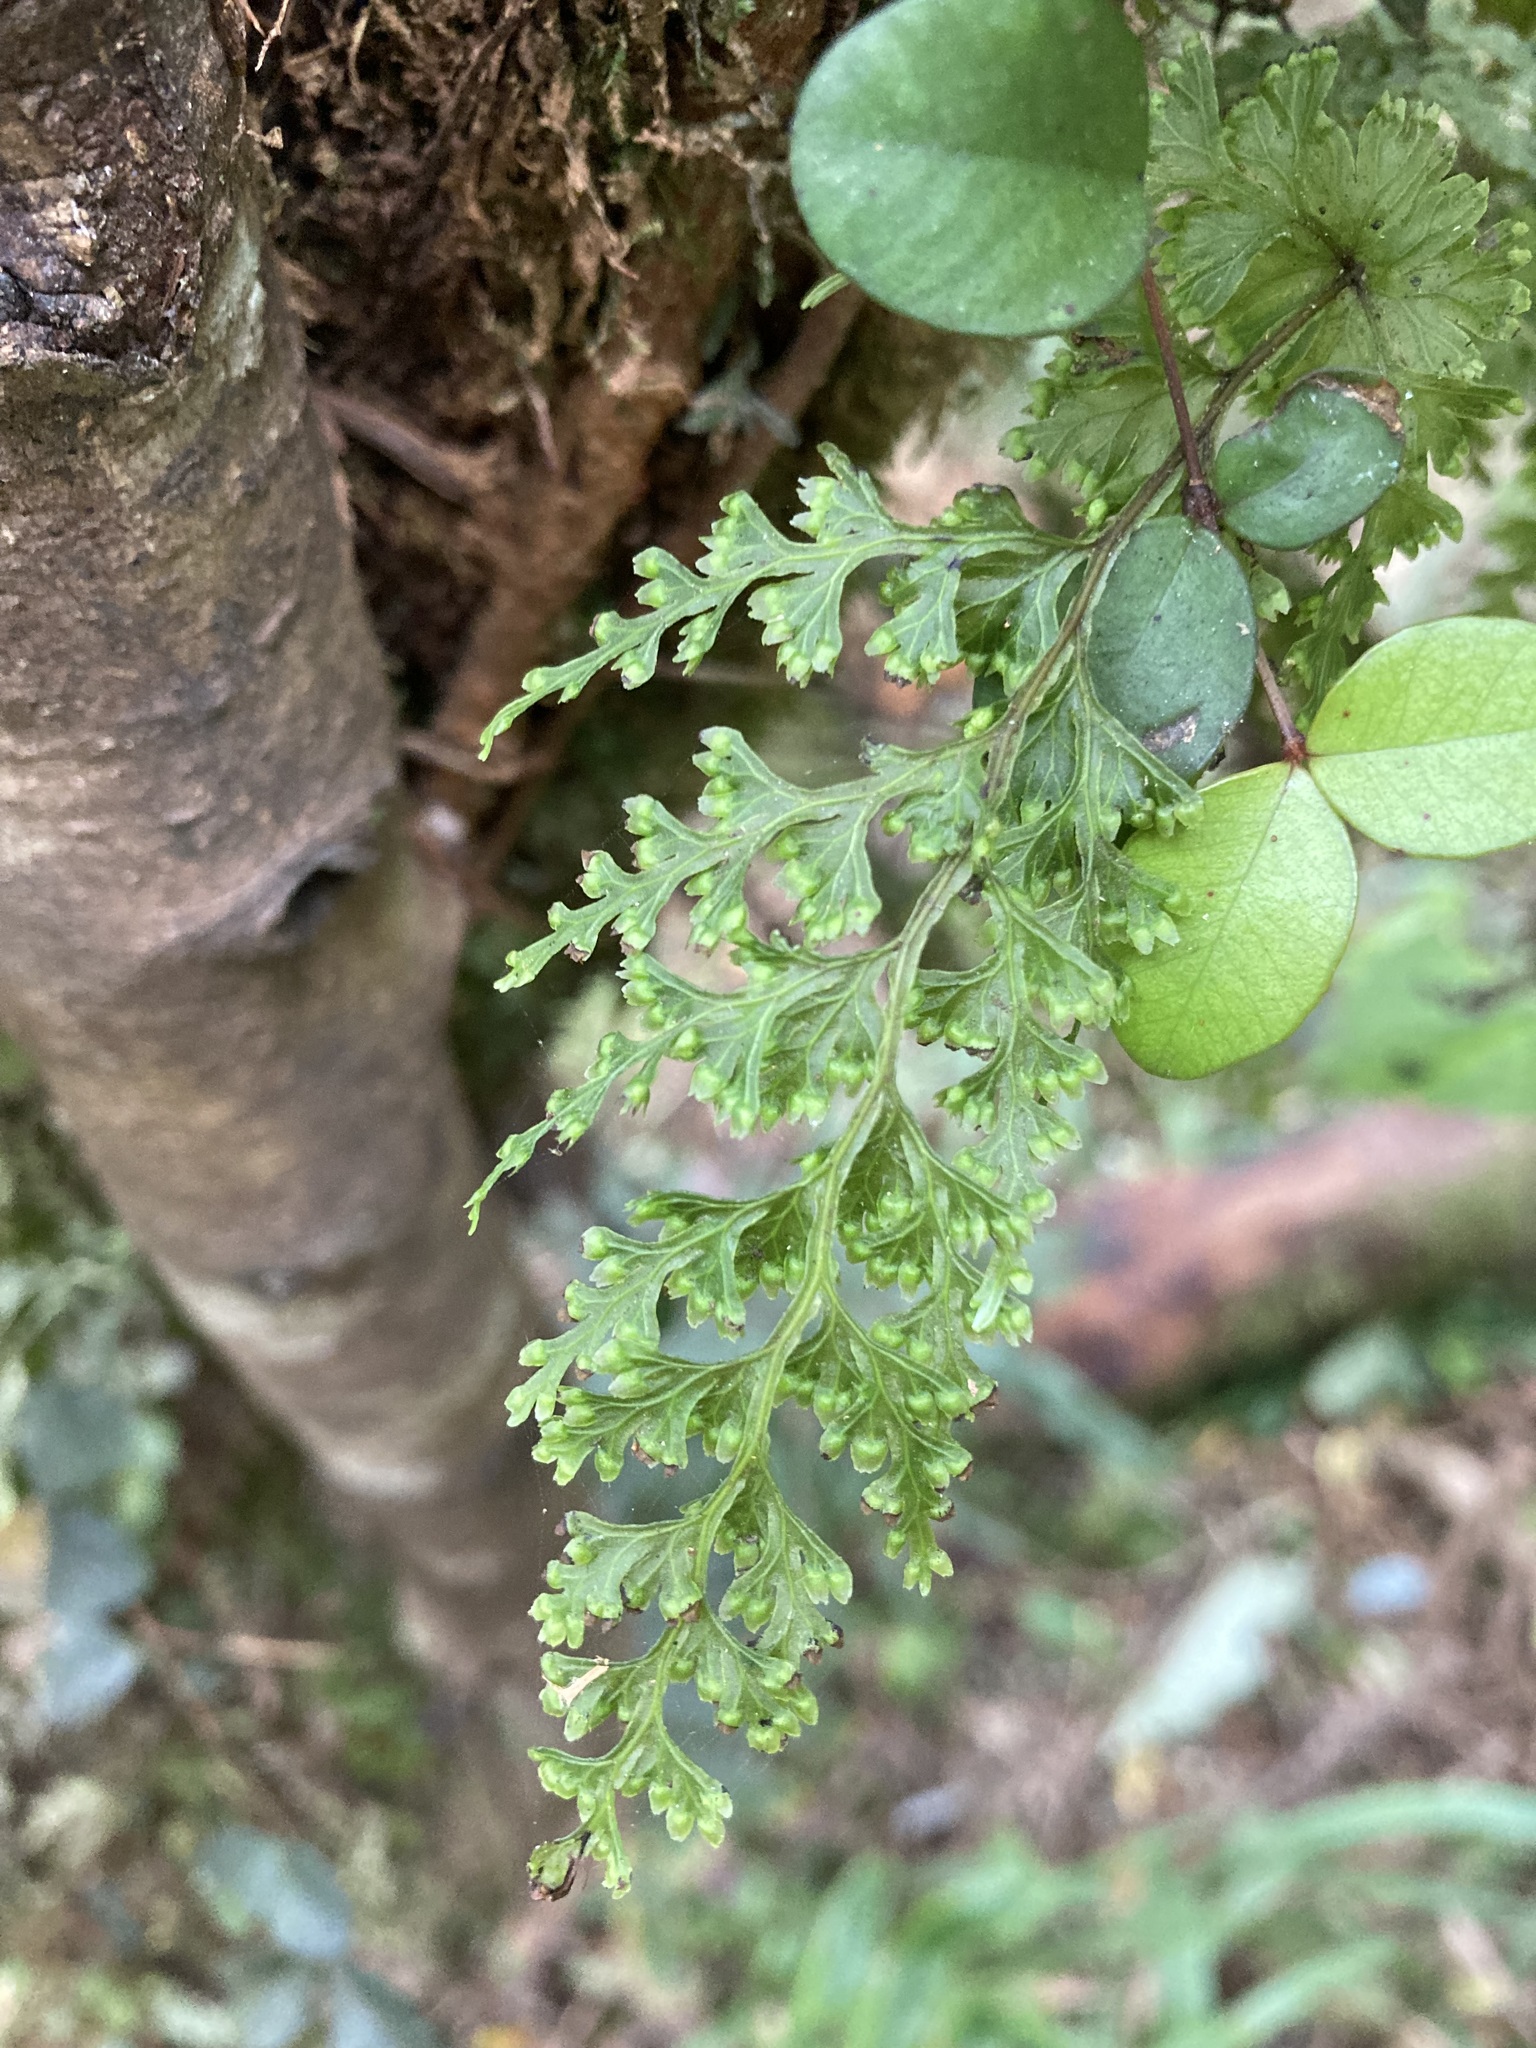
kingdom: Plantae
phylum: Tracheophyta
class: Polypodiopsida
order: Hymenophyllales
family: Hymenophyllaceae
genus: Hymenophyllum
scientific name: Hymenophyllum demissum
